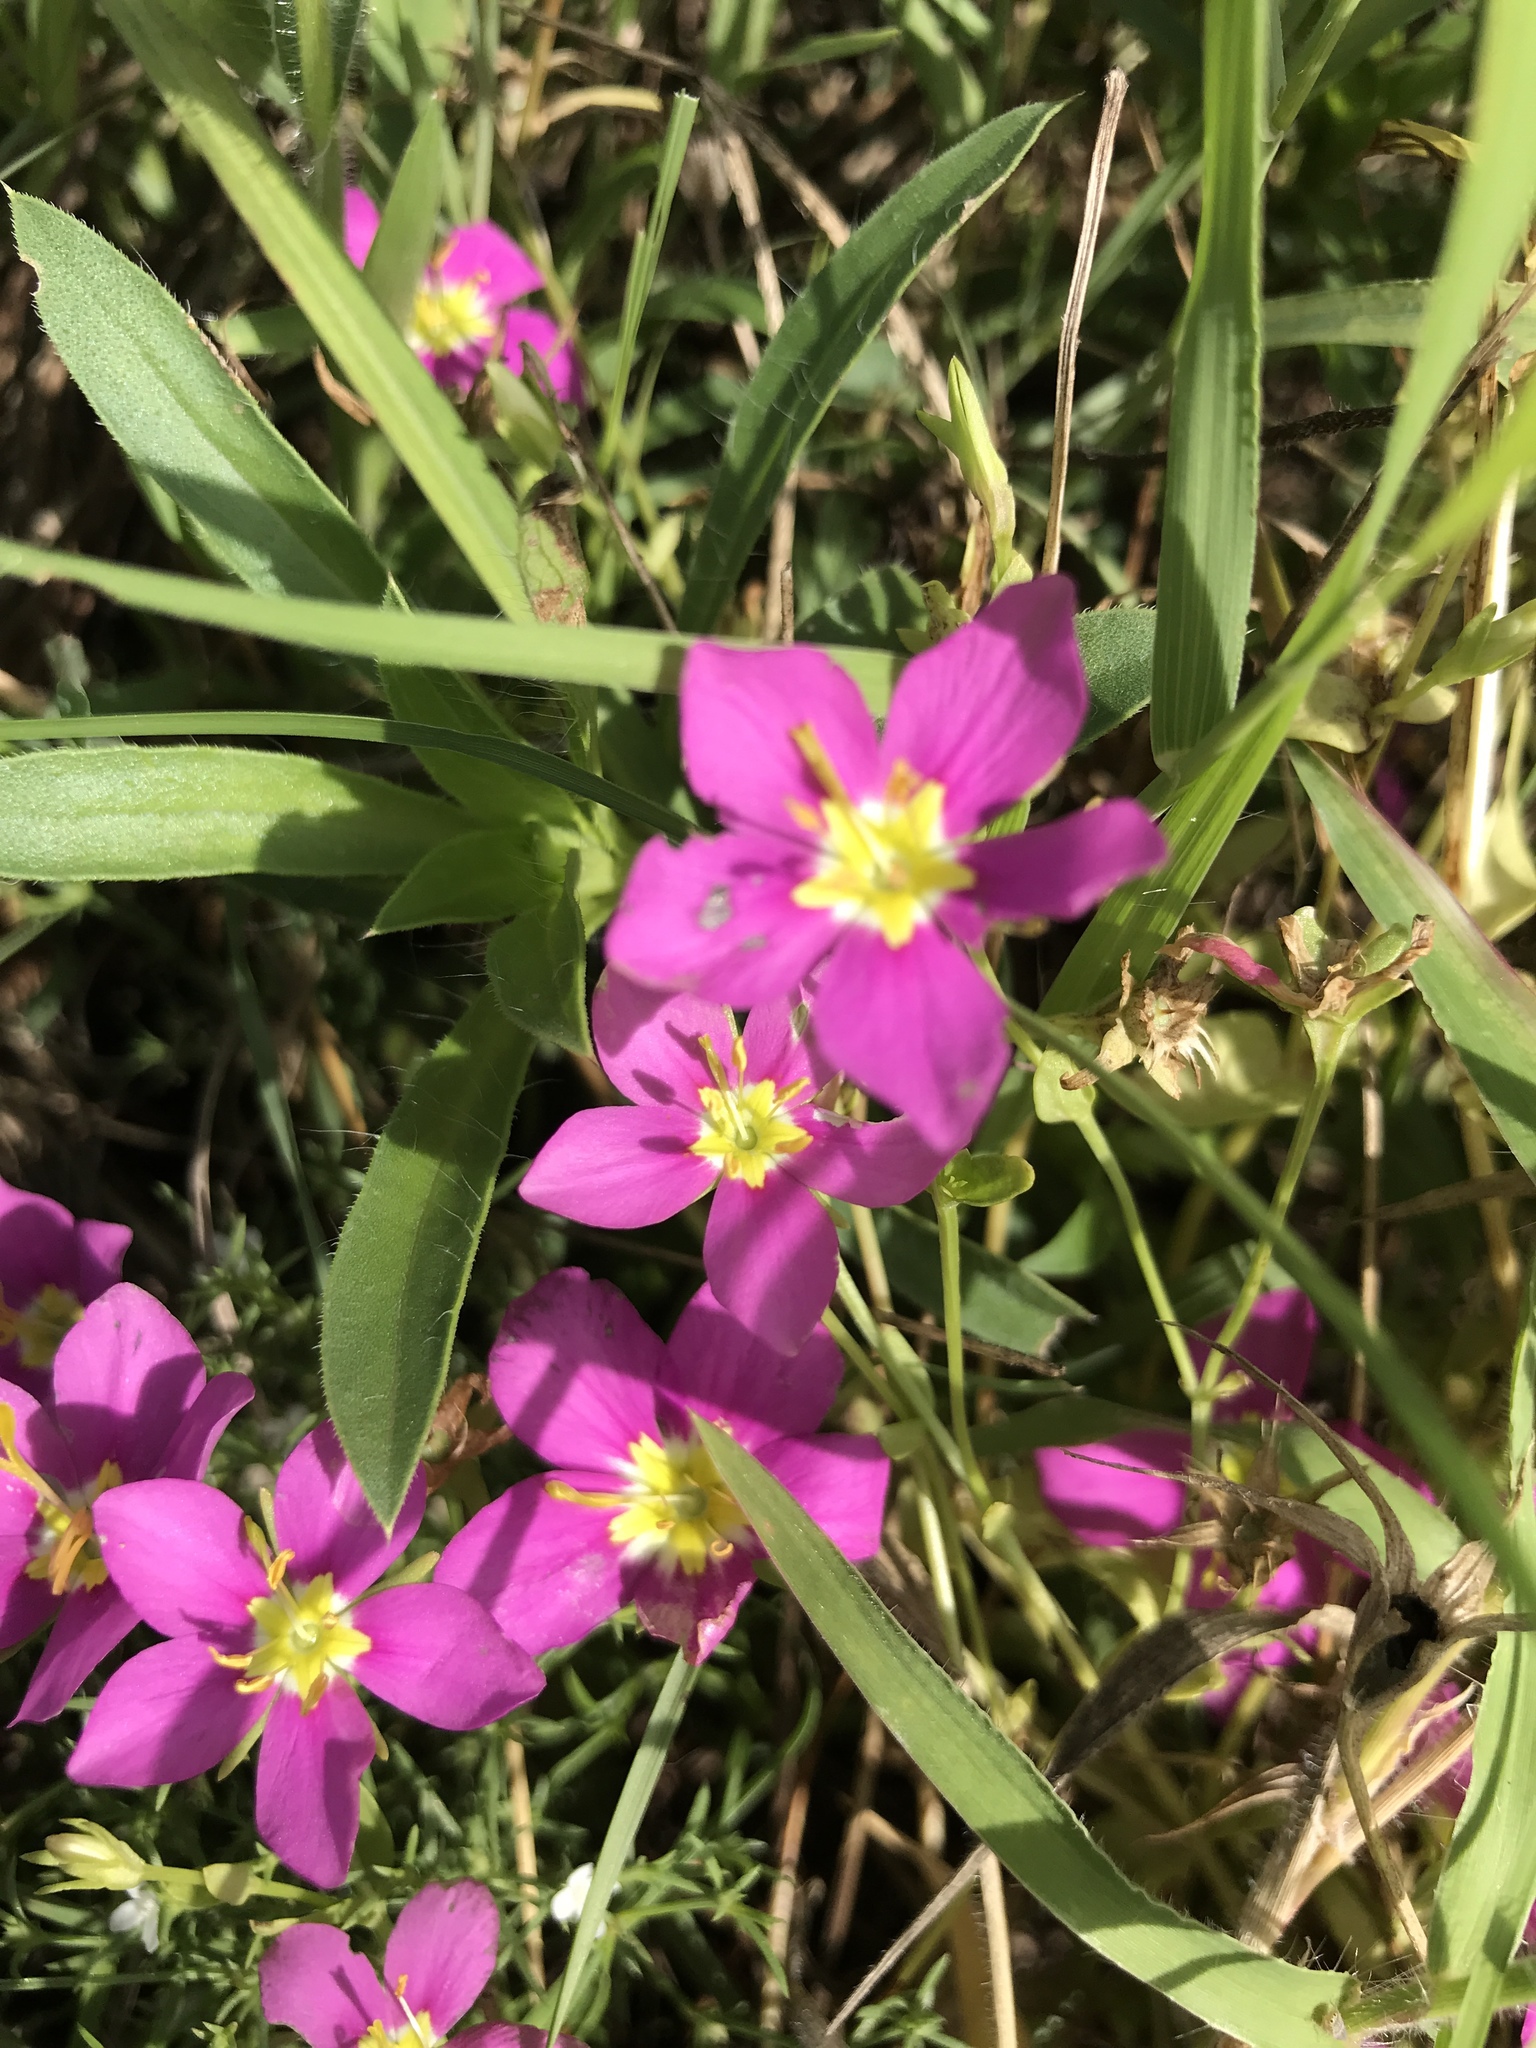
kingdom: Plantae
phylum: Tracheophyta
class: Magnoliopsida
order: Gentianales
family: Gentianaceae
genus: Sabatia
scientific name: Sabatia campestris
